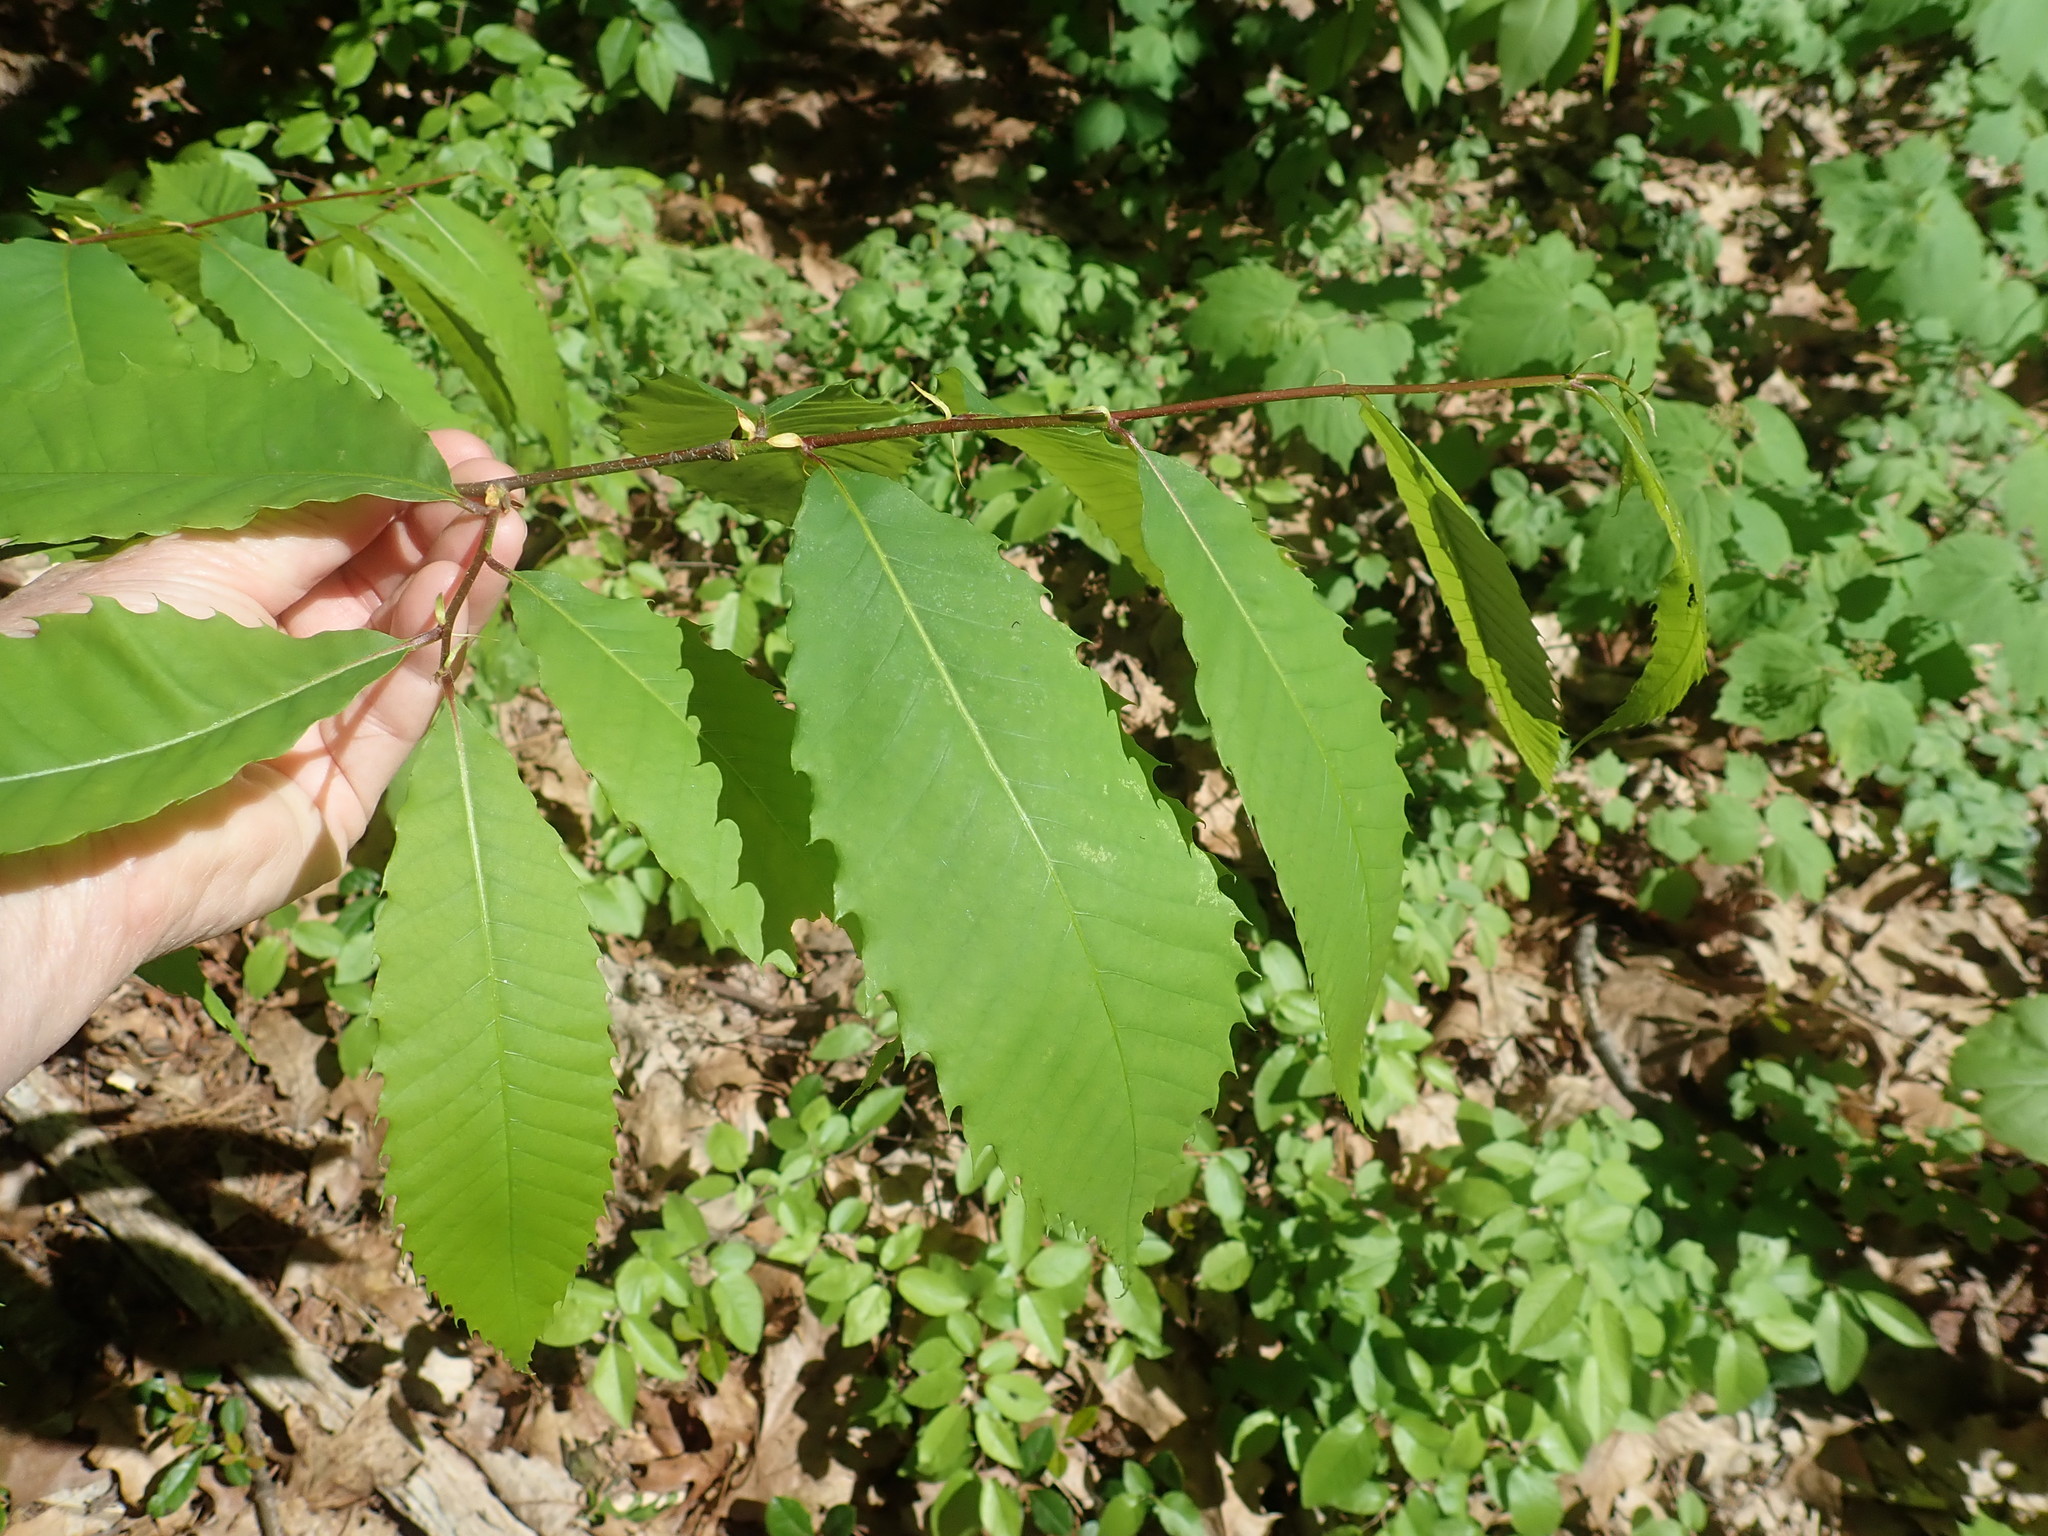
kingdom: Plantae
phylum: Tracheophyta
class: Magnoliopsida
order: Fagales
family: Fagaceae
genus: Castanea
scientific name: Castanea dentata
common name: American chestnut
